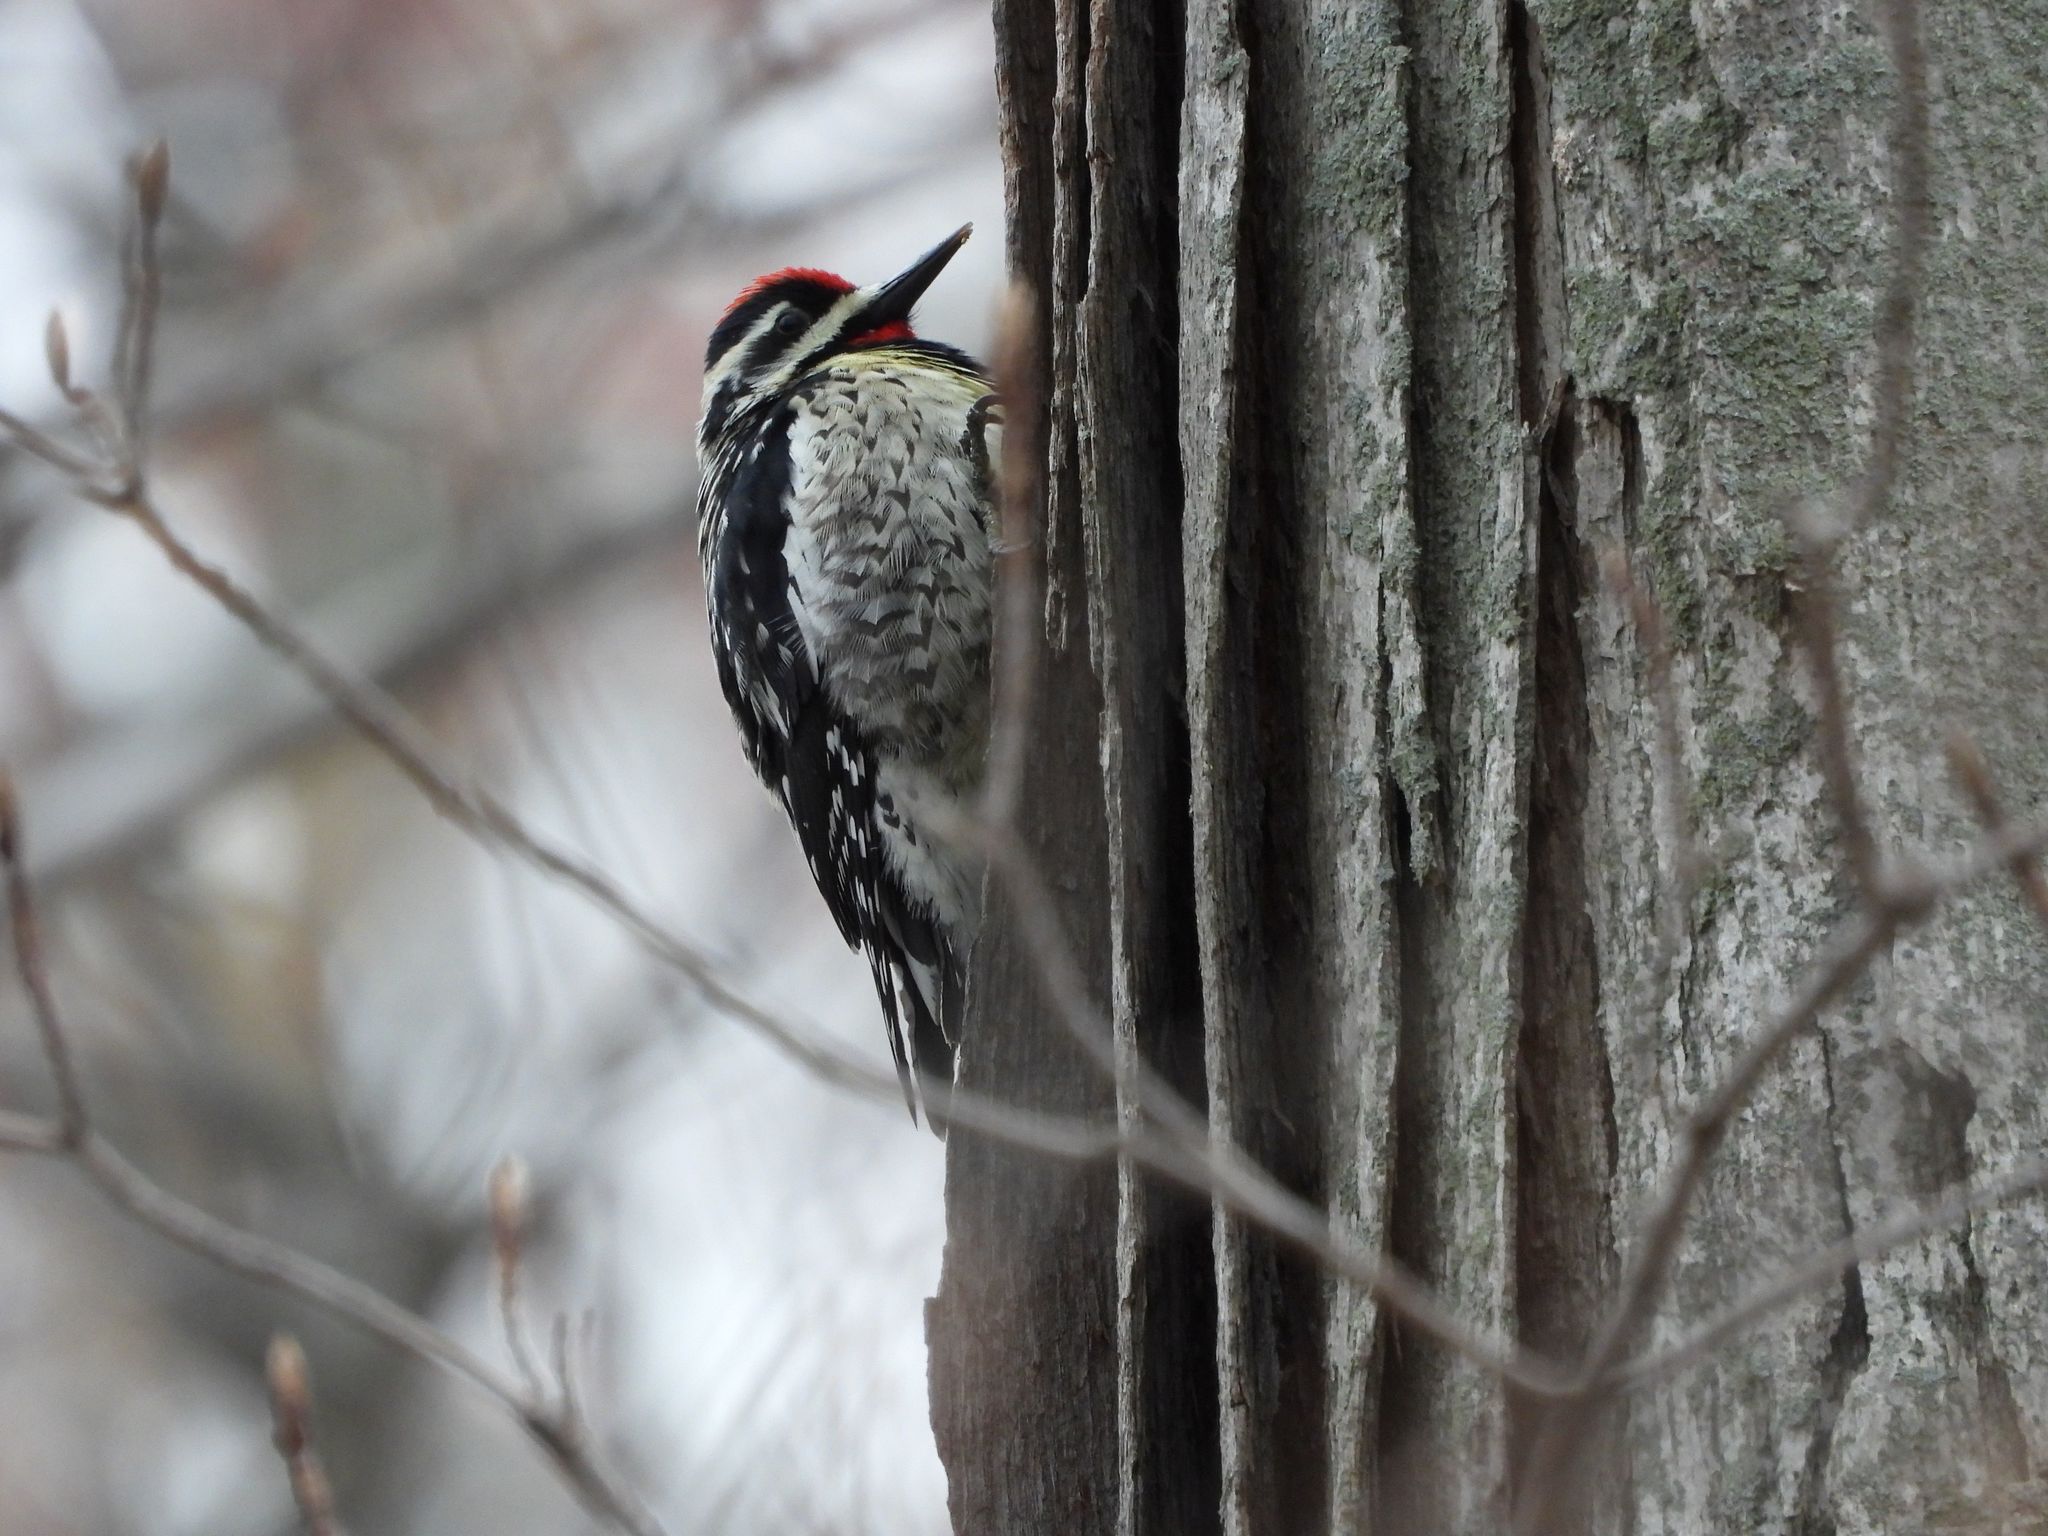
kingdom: Animalia
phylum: Chordata
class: Aves
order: Piciformes
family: Picidae
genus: Sphyrapicus
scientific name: Sphyrapicus varius
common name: Yellow-bellied sapsucker
